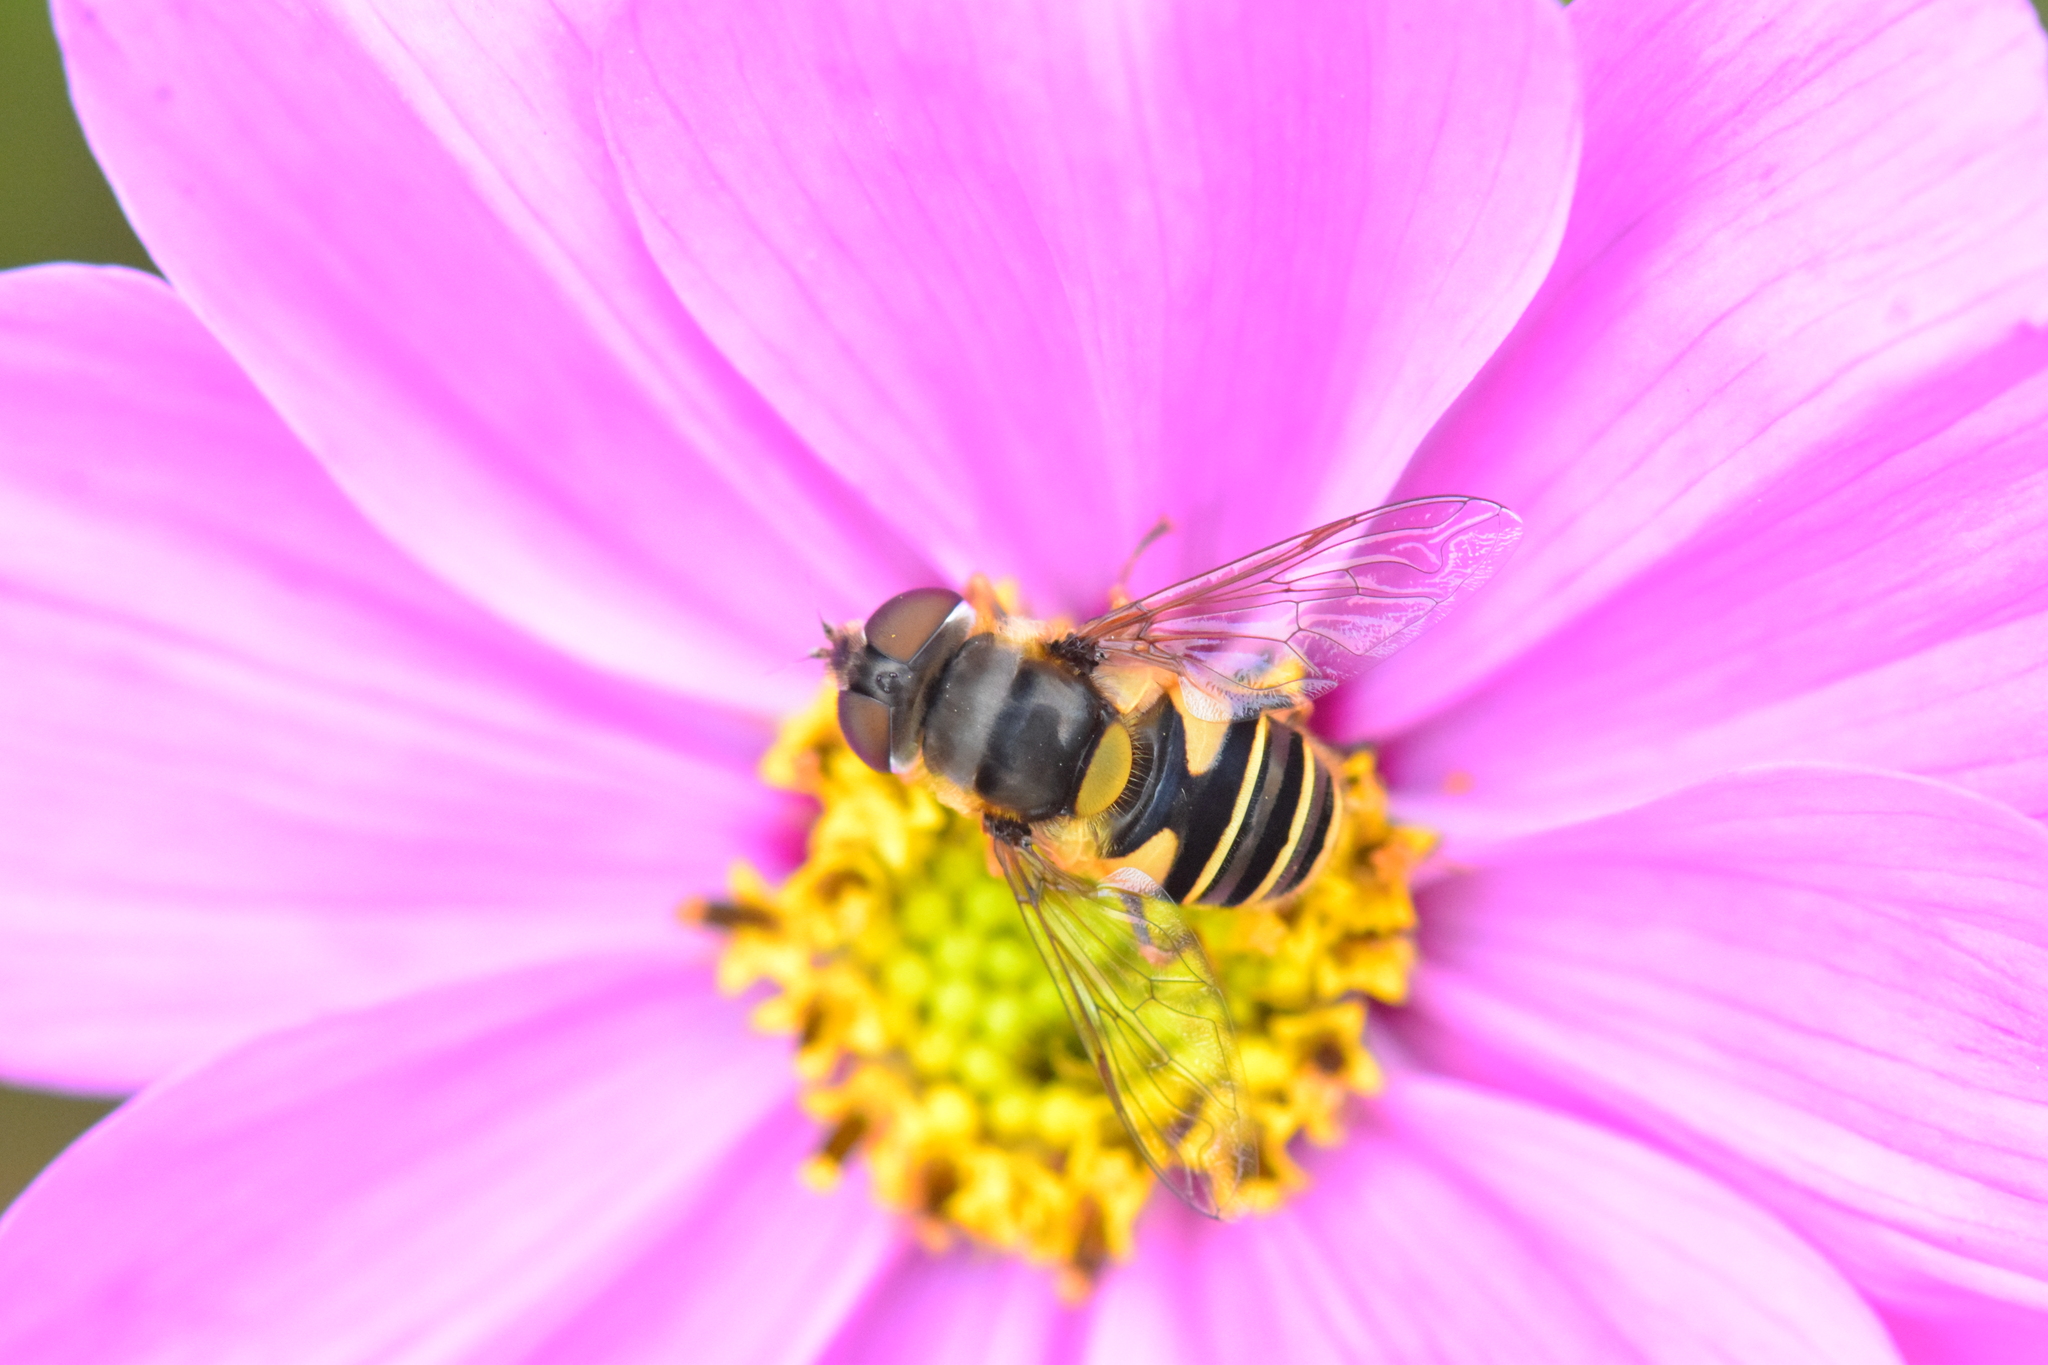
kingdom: Animalia
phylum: Arthropoda
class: Insecta
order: Diptera
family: Syrphidae
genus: Eristalis
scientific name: Eristalis transversa
